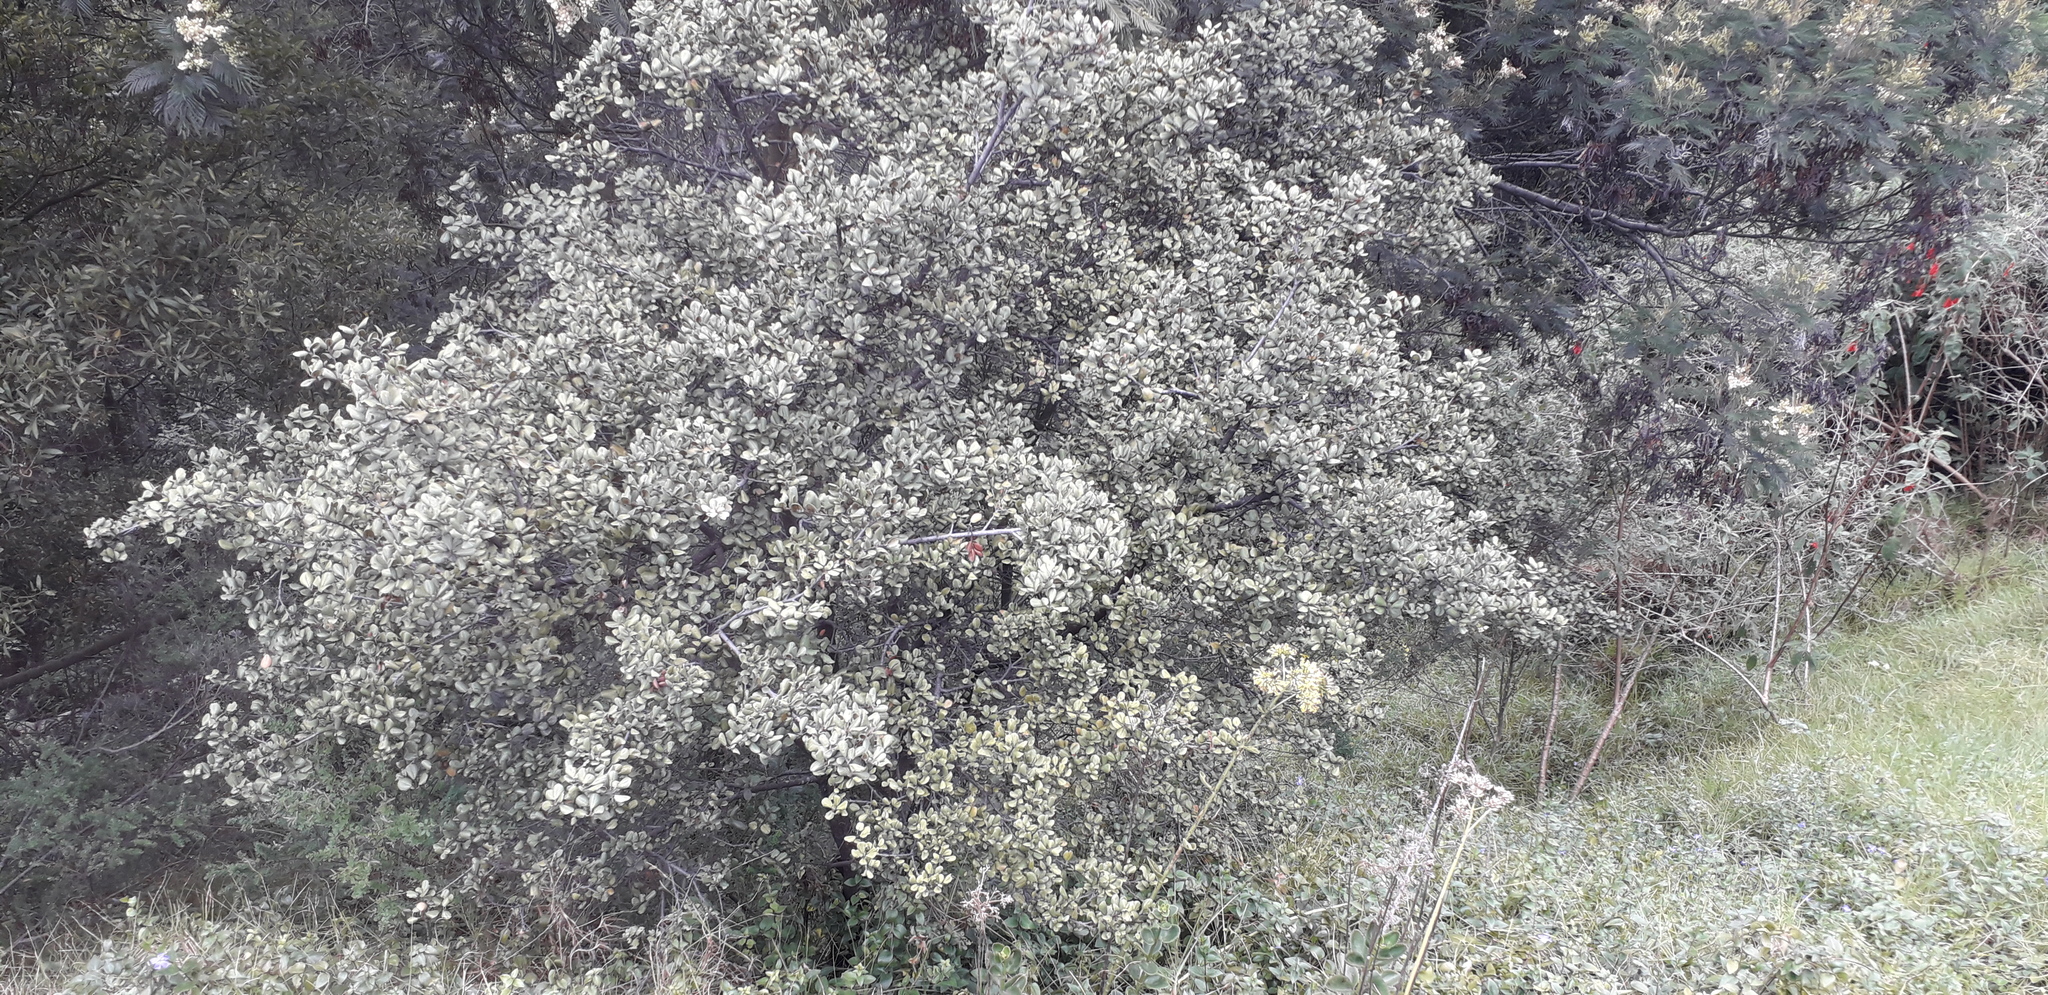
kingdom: Plantae
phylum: Tracheophyta
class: Magnoliopsida
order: Rosales
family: Rosaceae
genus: Hesperomeles
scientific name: Hesperomeles goudotiana
